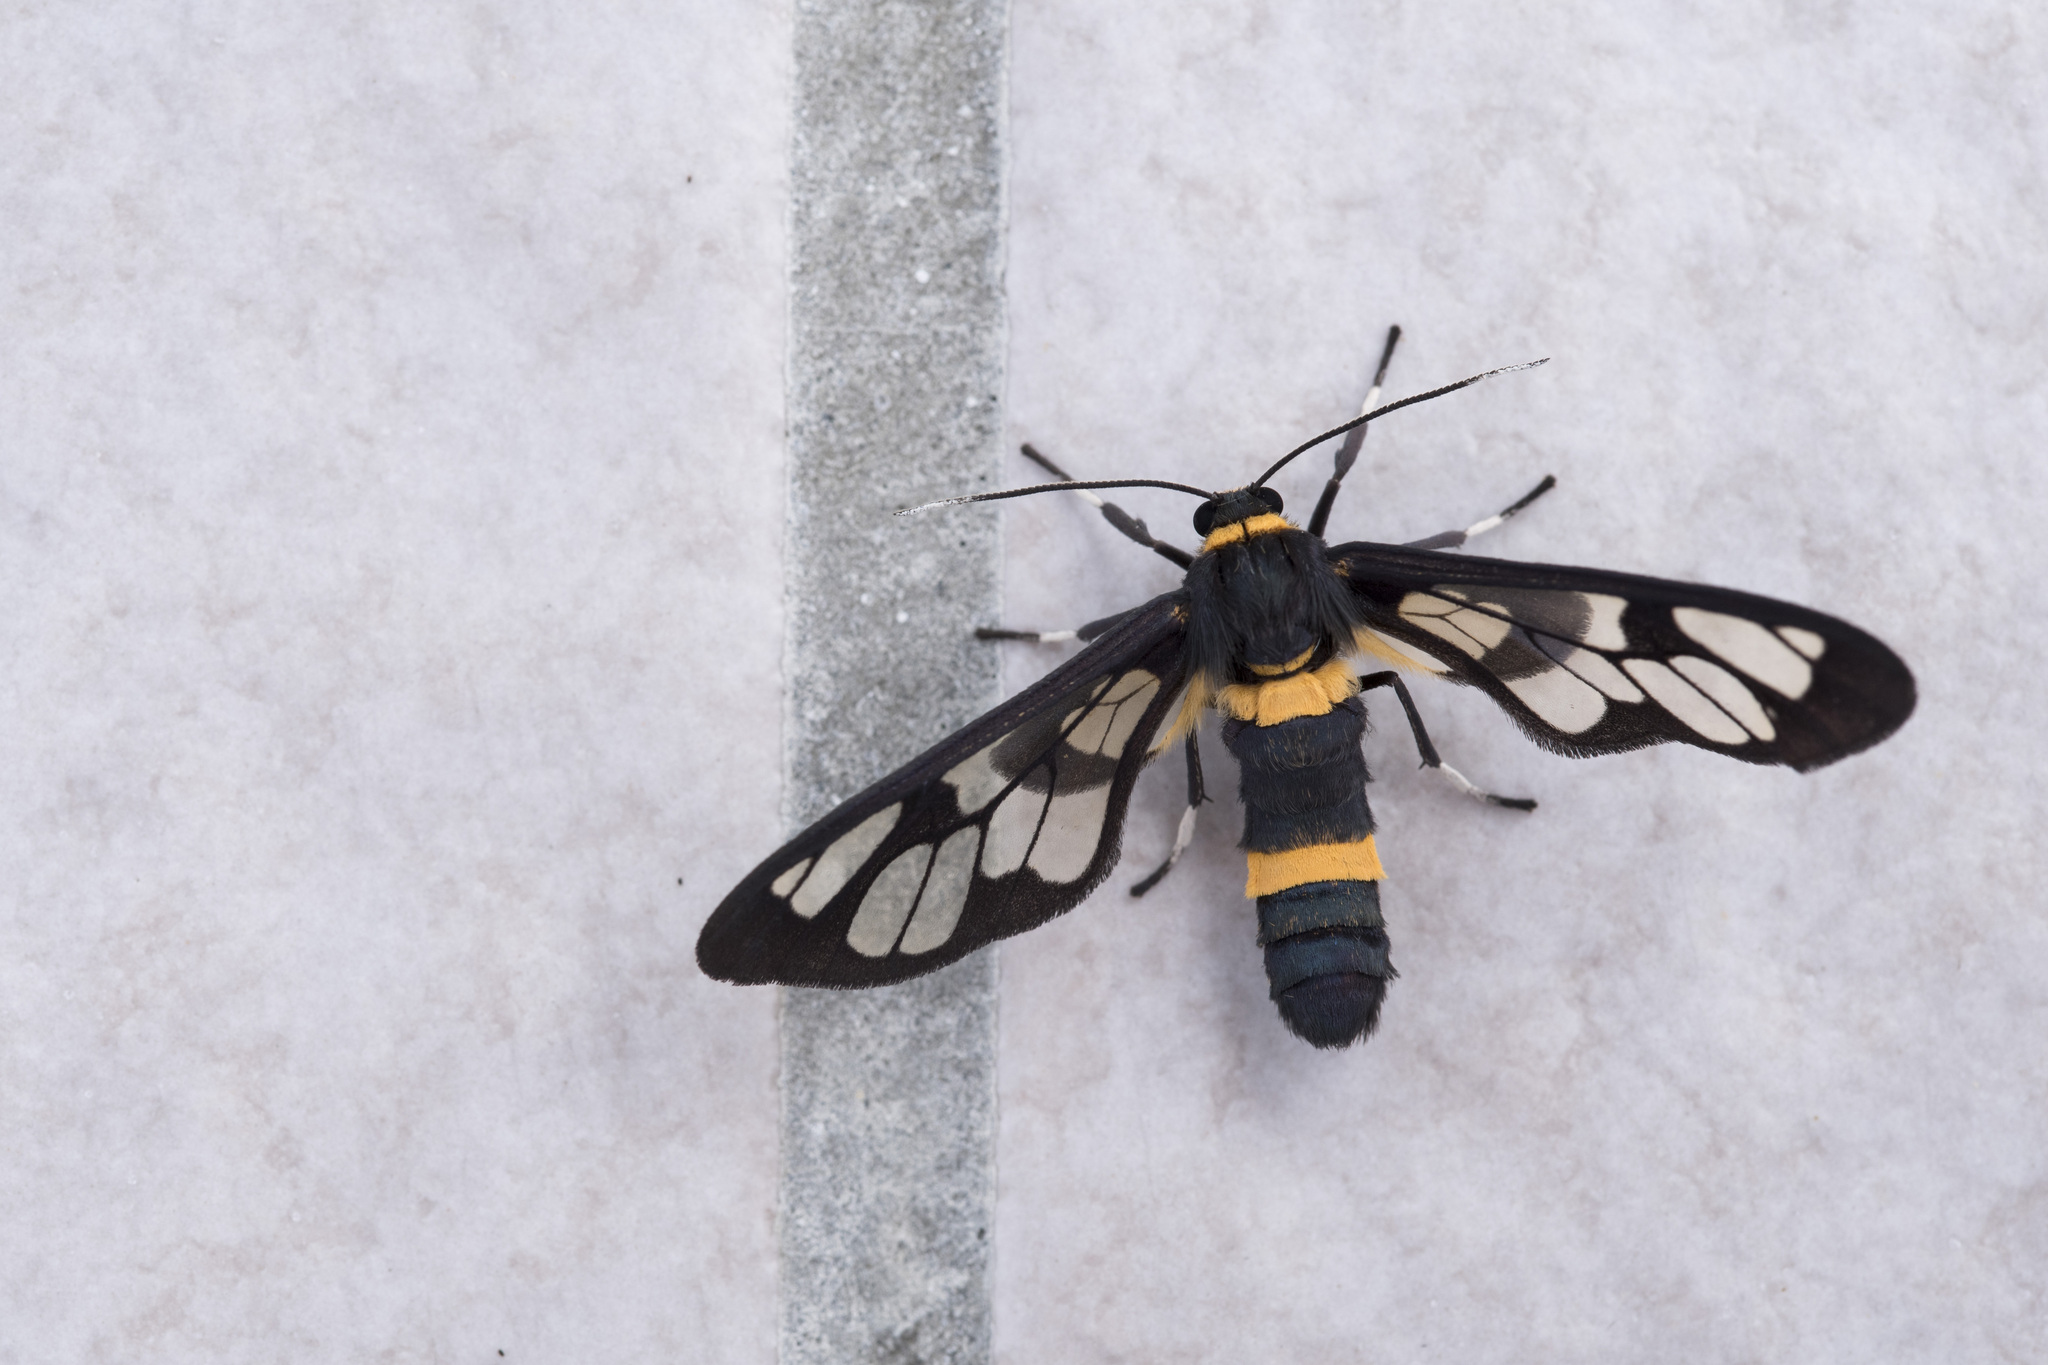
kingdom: Animalia
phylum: Arthropoda
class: Insecta
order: Lepidoptera
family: Erebidae
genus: Syntomoides
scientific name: Syntomoides imaon
